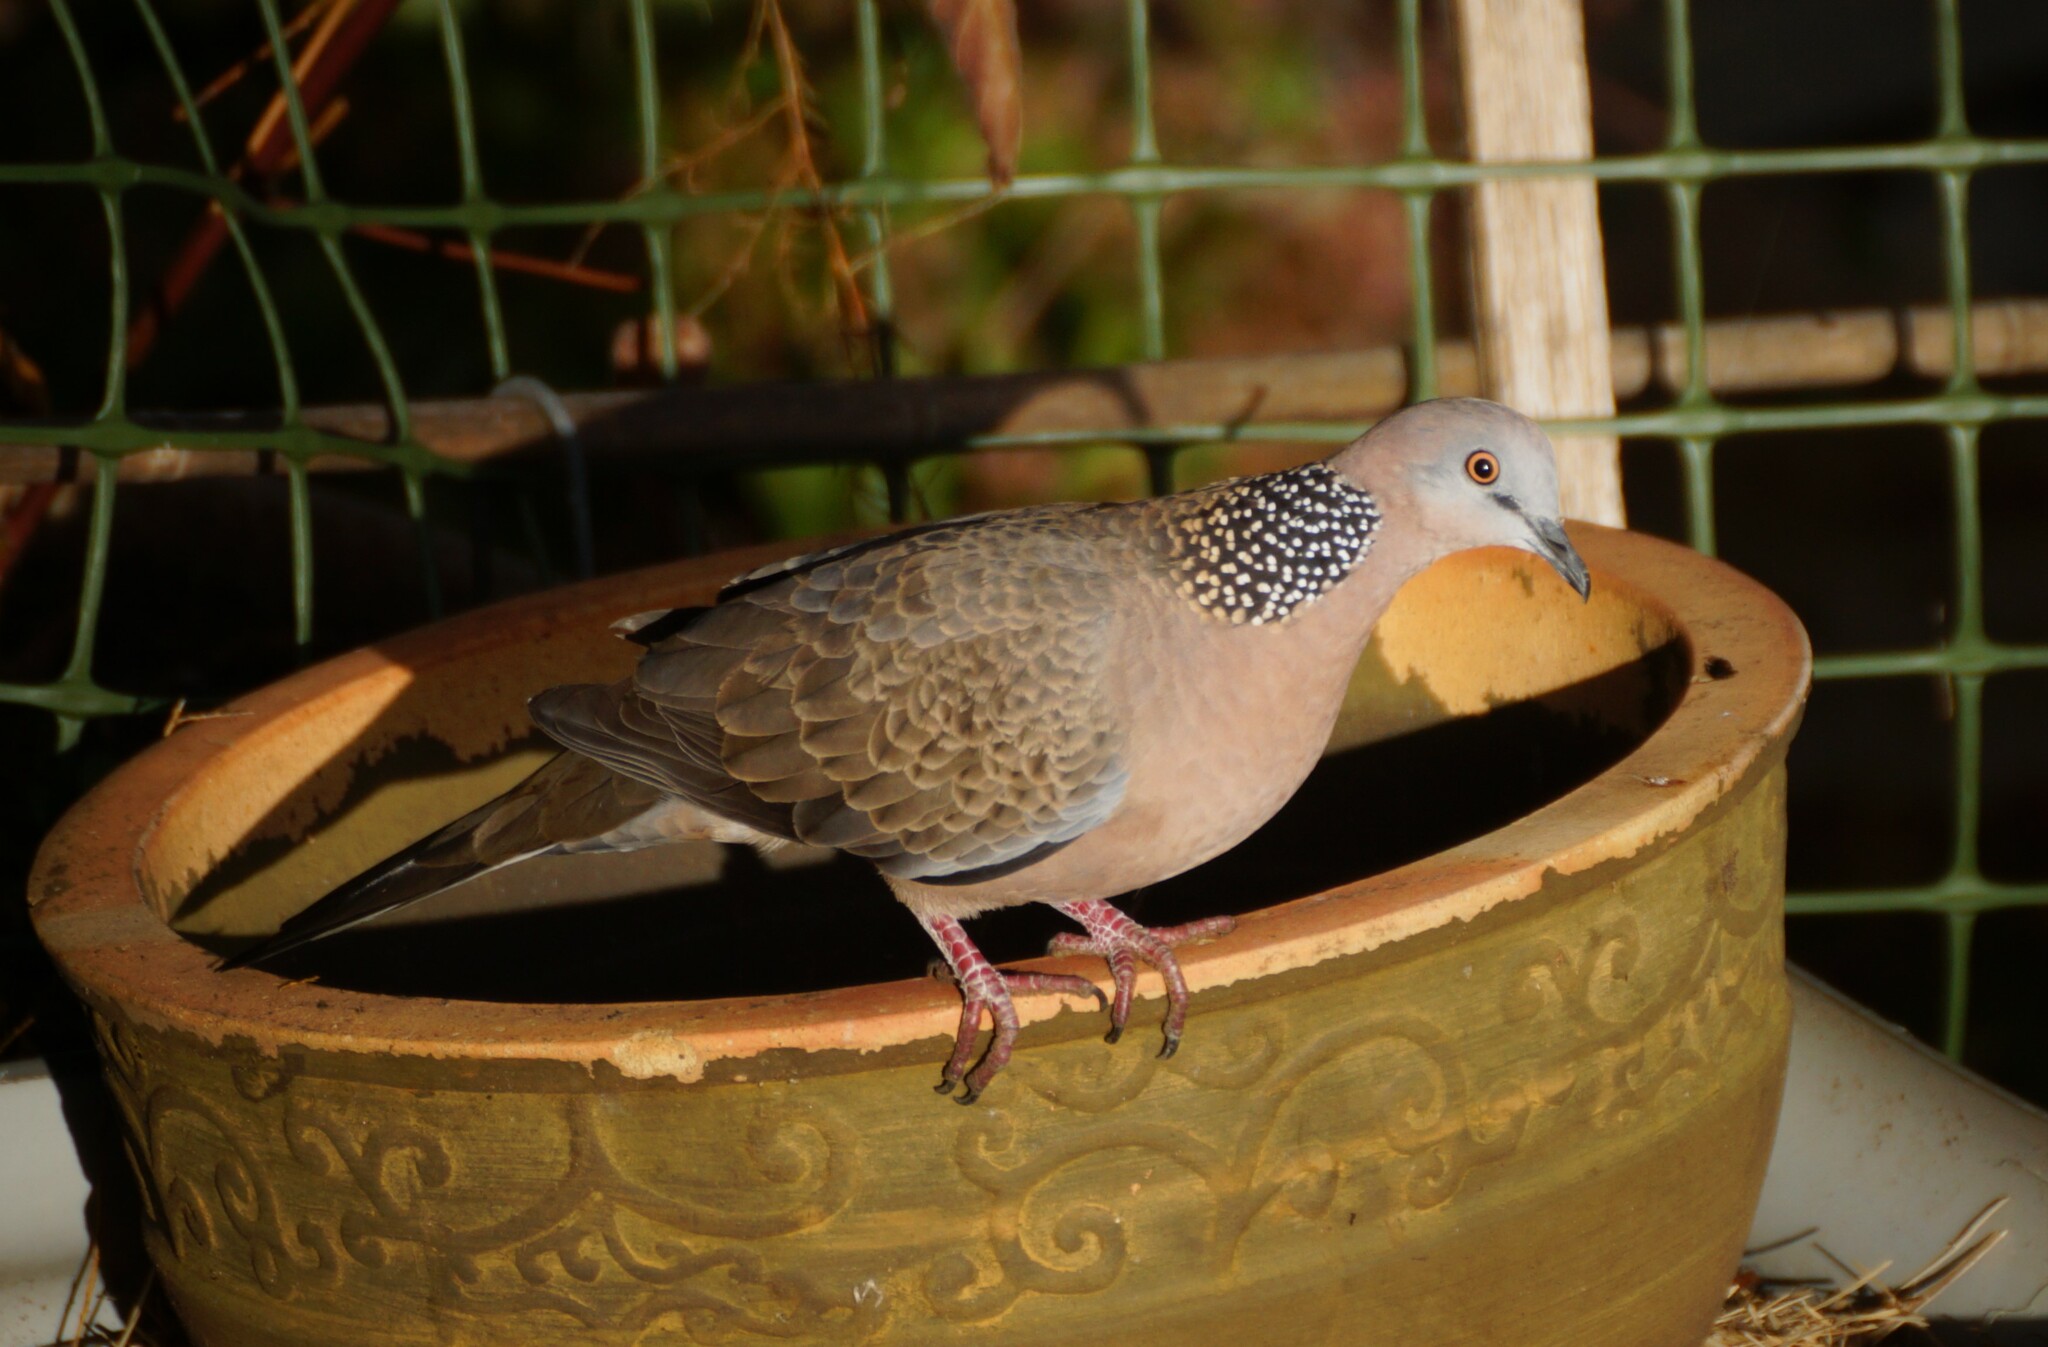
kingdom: Animalia
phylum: Chordata
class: Aves
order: Columbiformes
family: Columbidae
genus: Spilopelia
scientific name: Spilopelia chinensis
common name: Spotted dove
